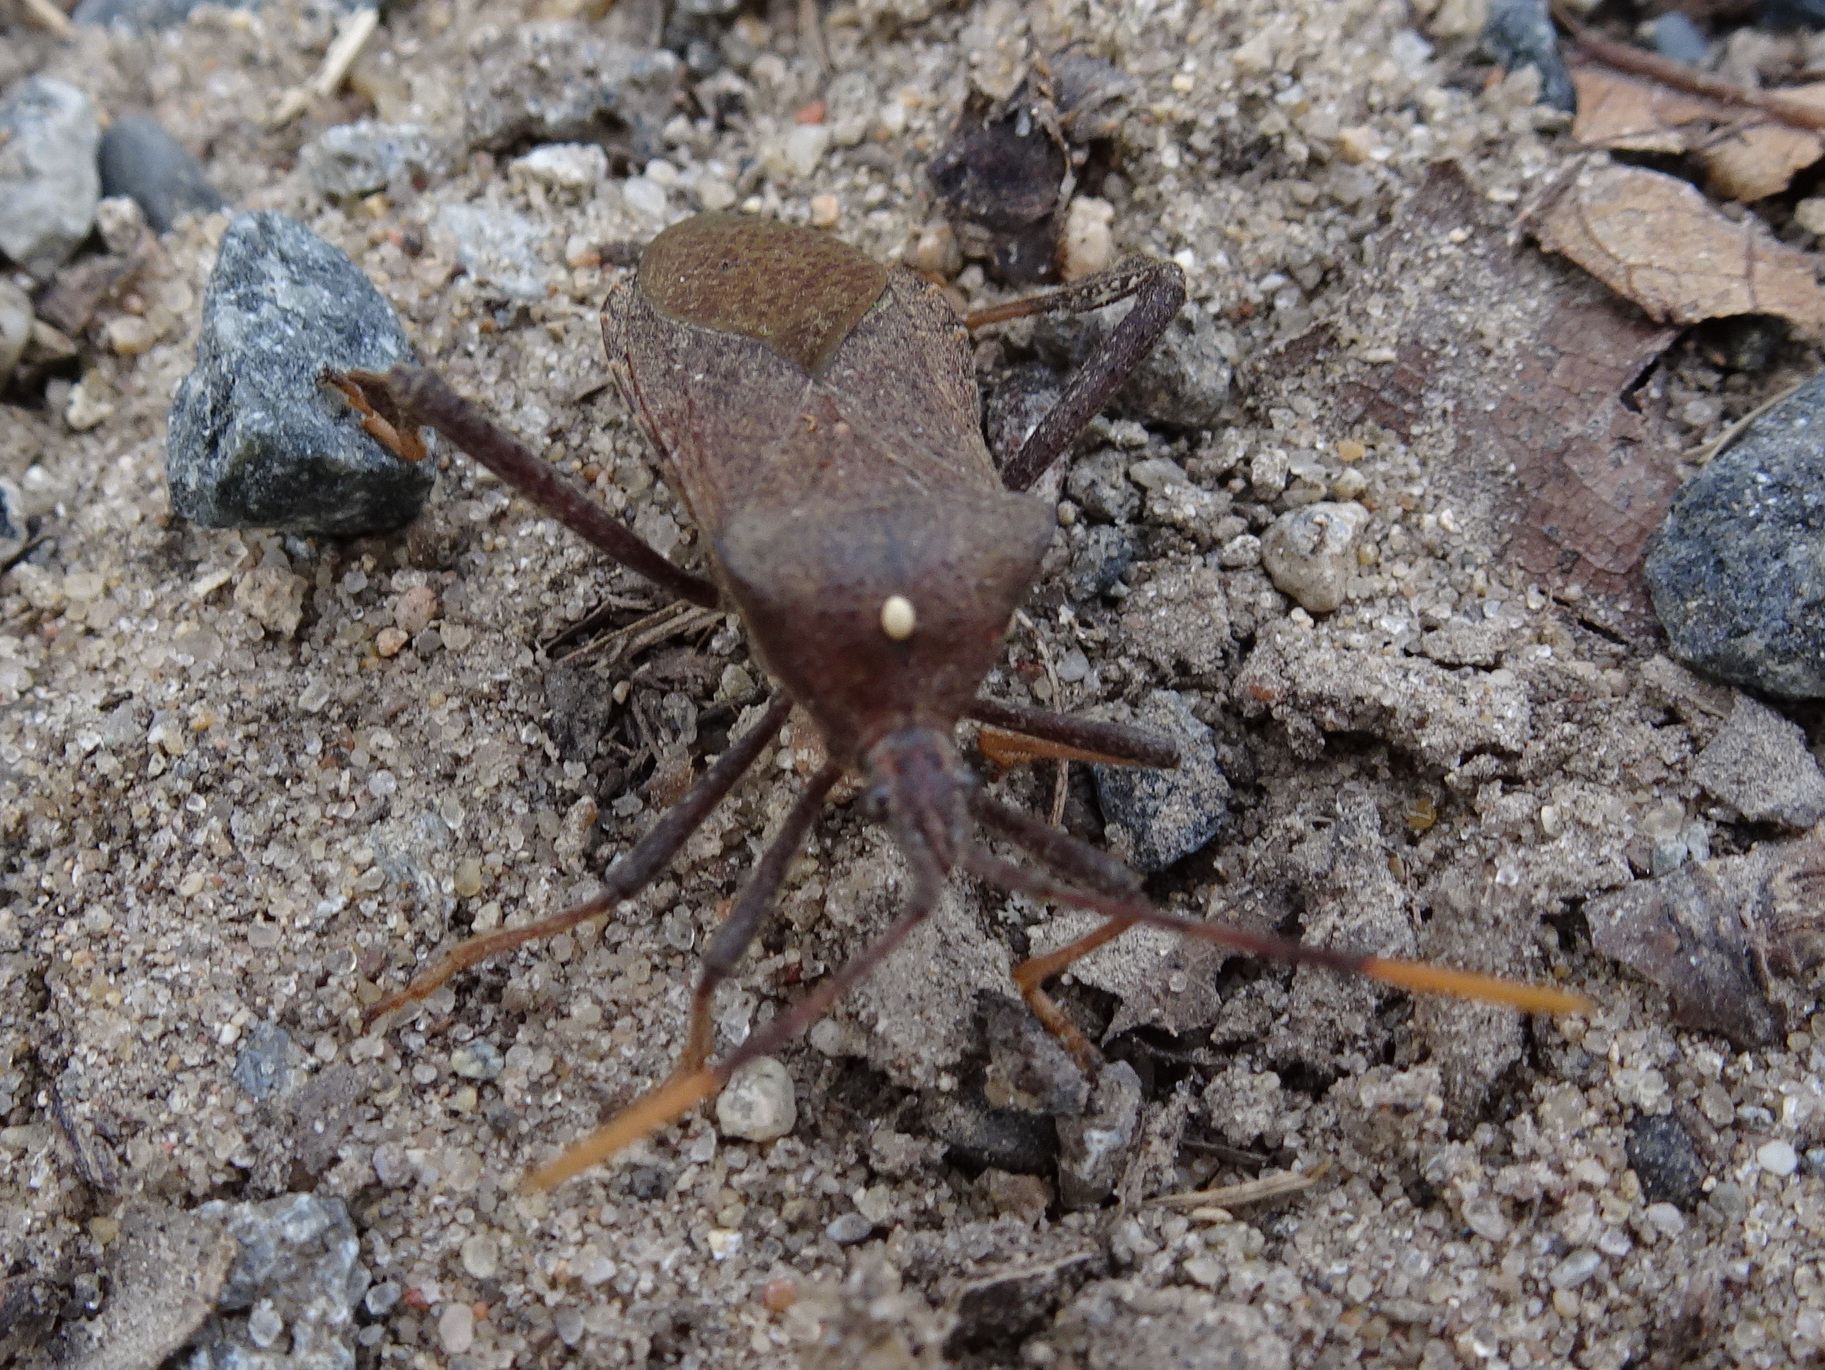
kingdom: Animalia
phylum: Arthropoda
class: Insecta
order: Hemiptera
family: Coreidae
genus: Acanthocephala
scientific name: Acanthocephala terminalis
